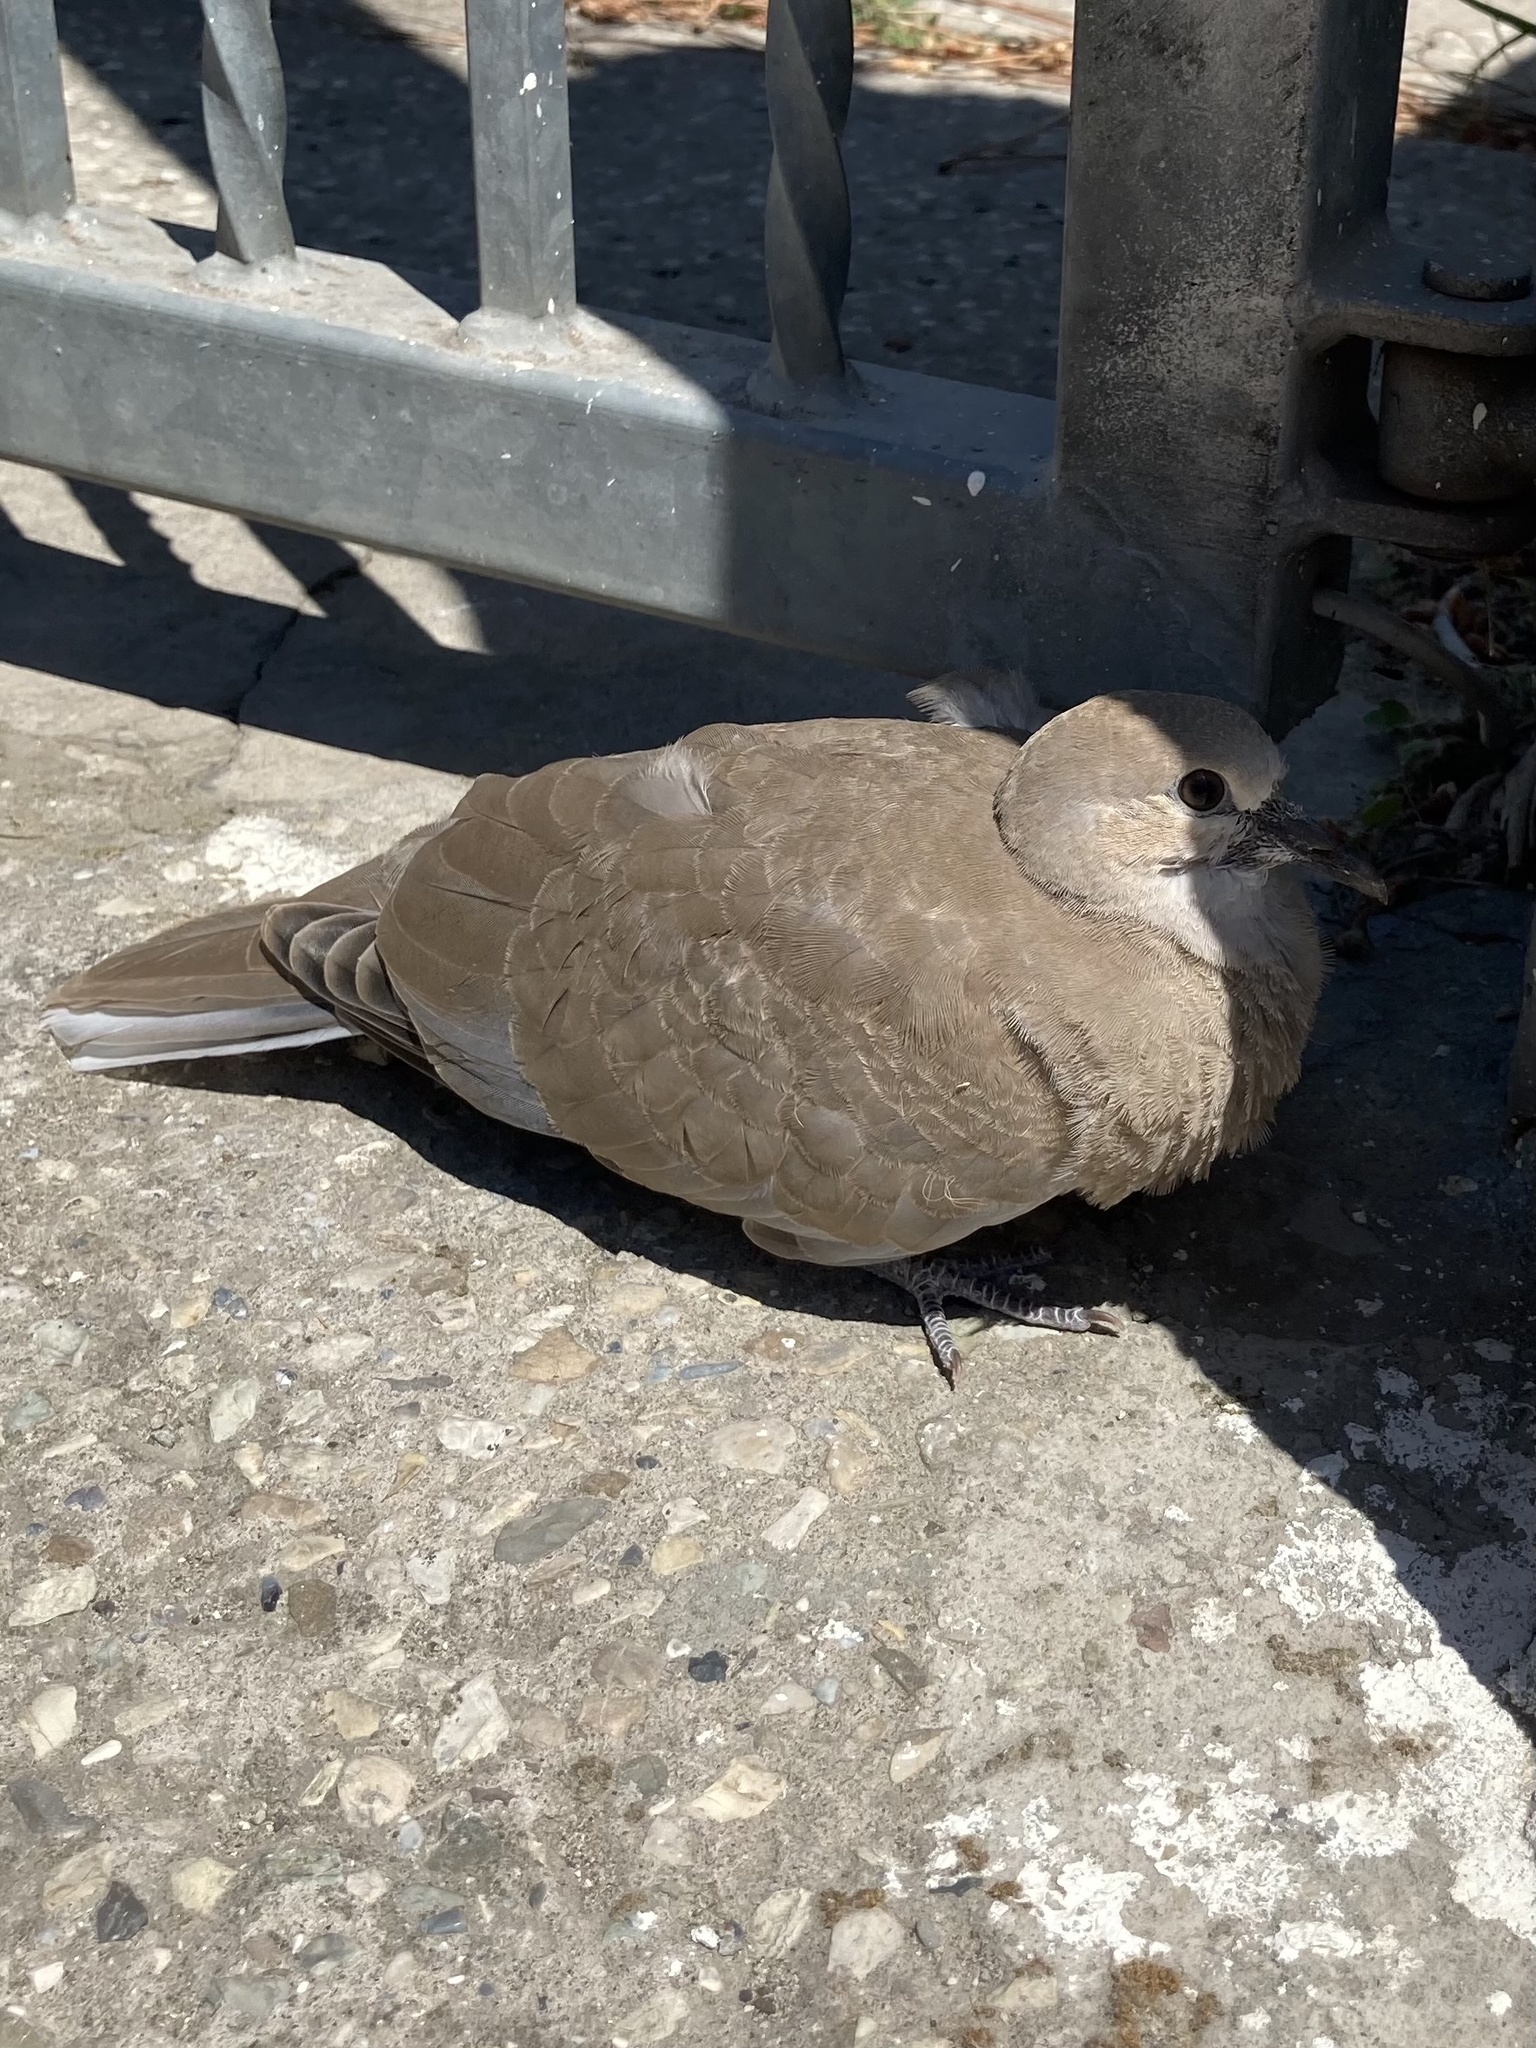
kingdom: Animalia
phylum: Chordata
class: Aves
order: Columbiformes
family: Columbidae
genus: Streptopelia
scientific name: Streptopelia decaocto
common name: Eurasian collared dove
